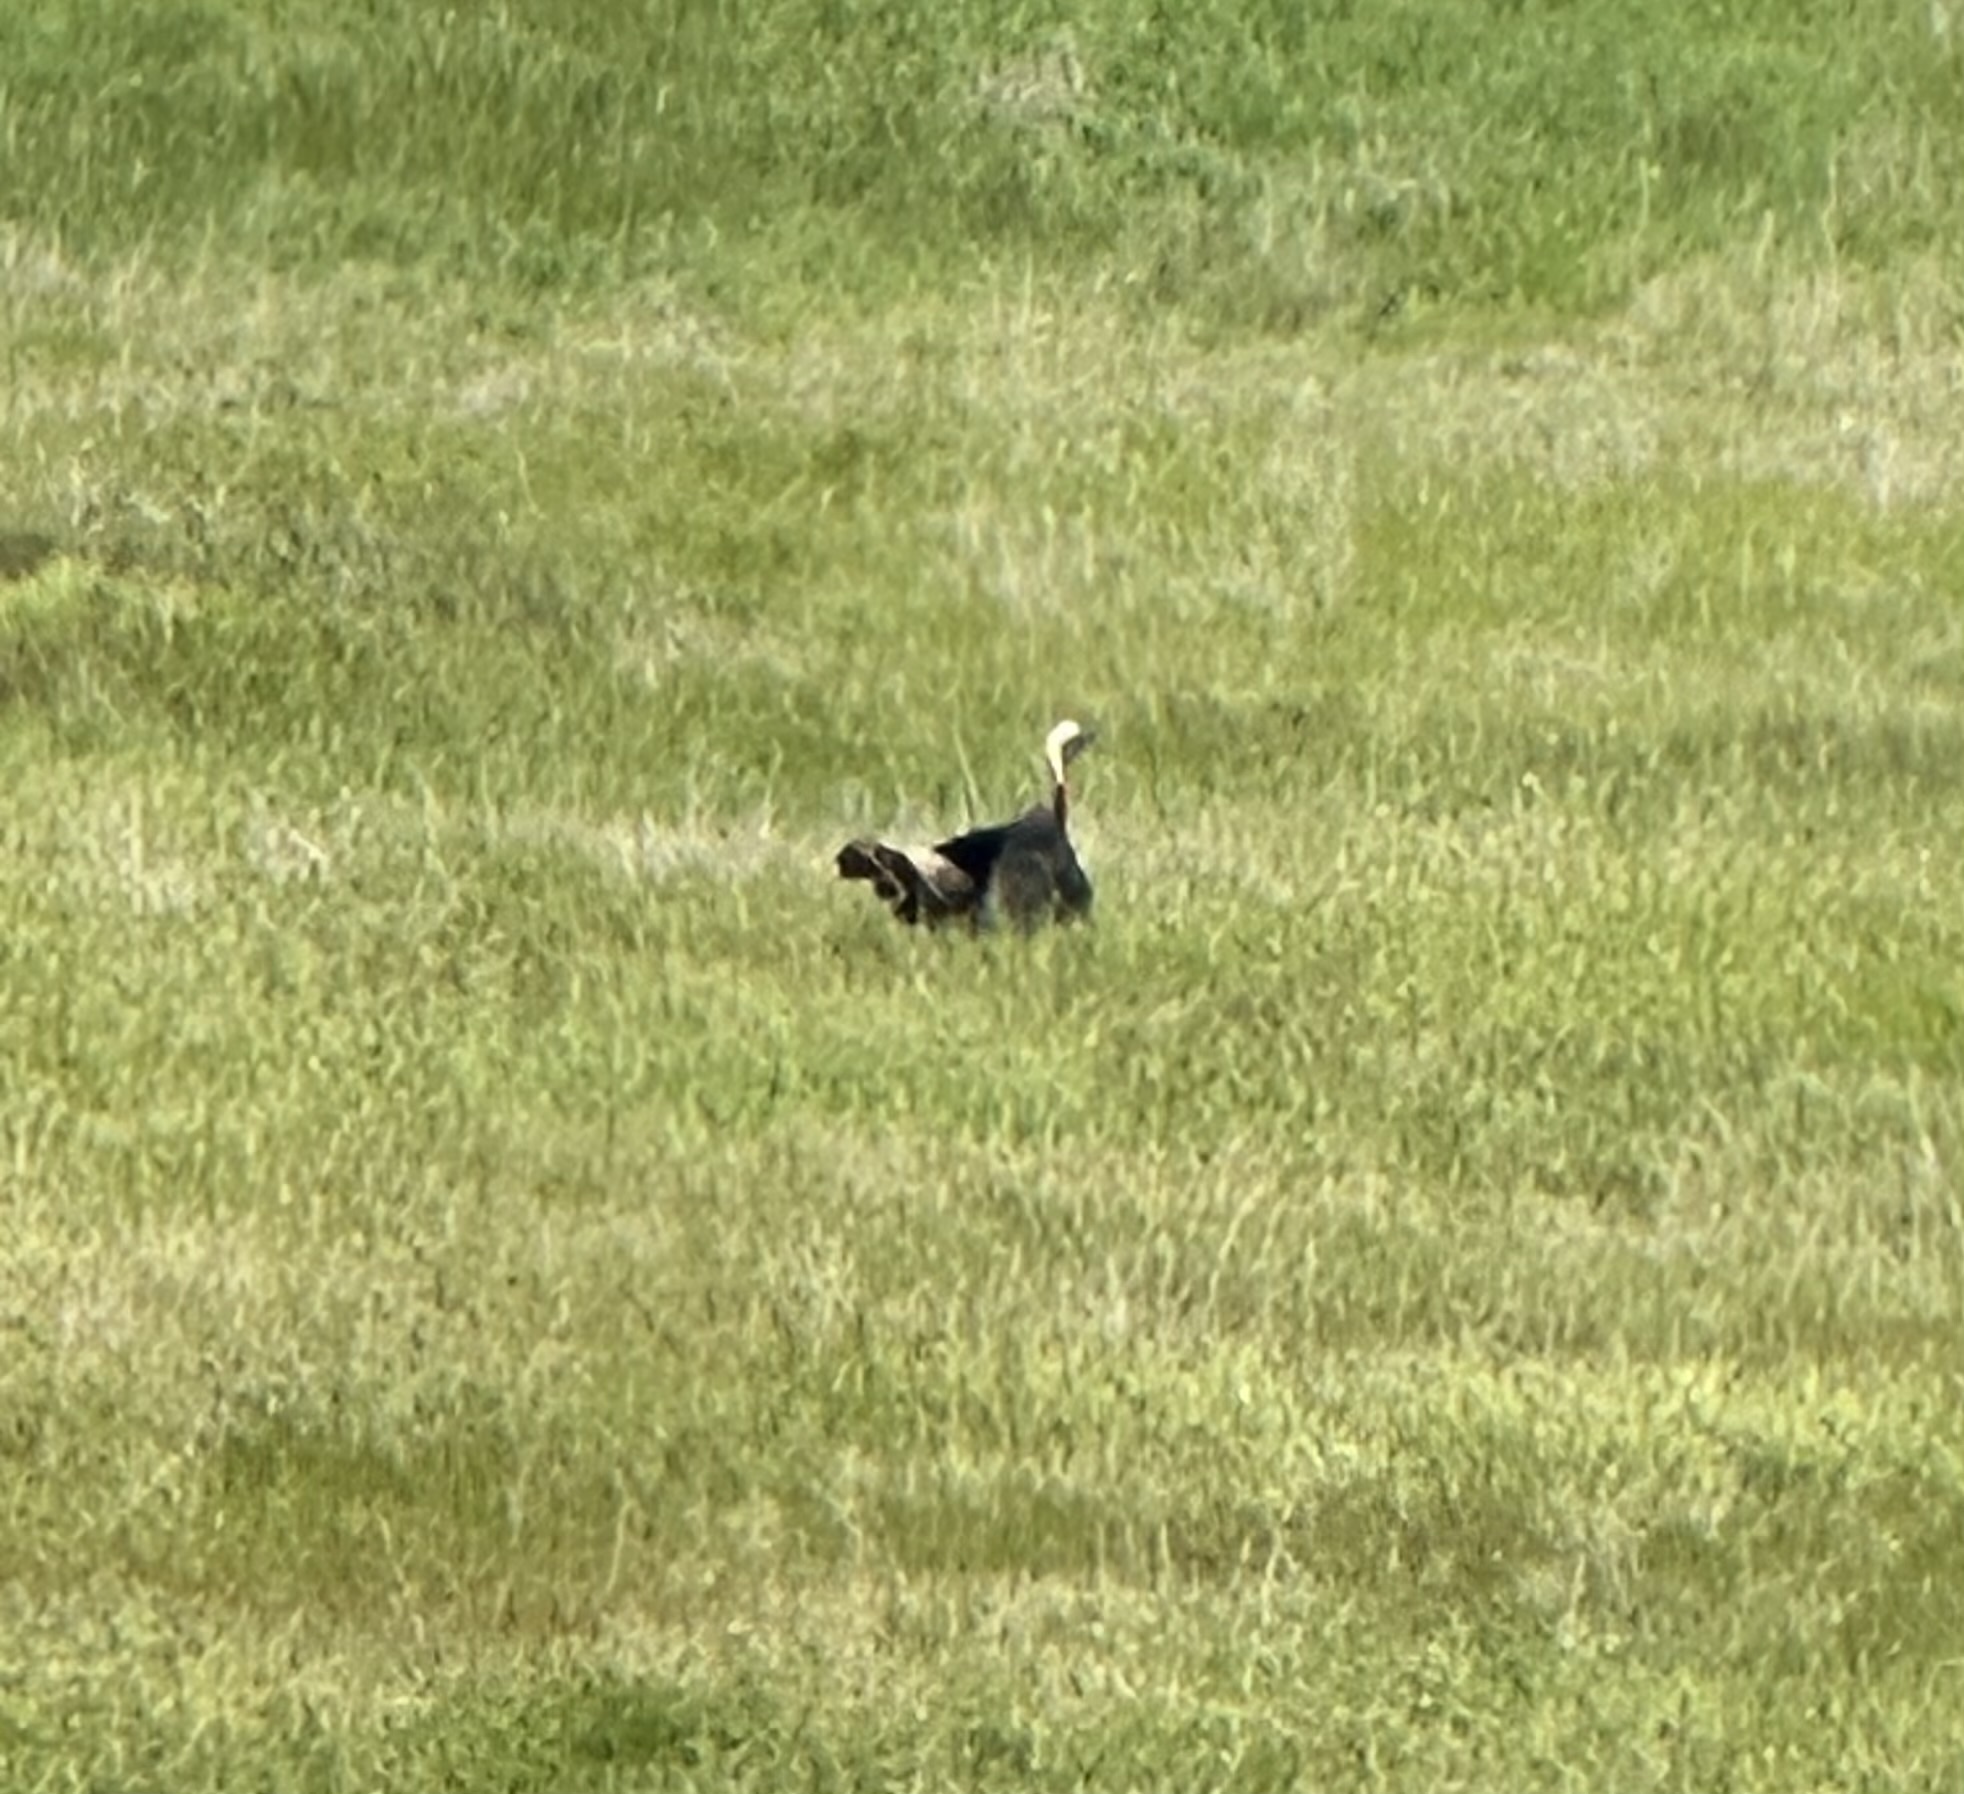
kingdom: Animalia
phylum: Chordata
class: Aves
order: Galliformes
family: Phasianidae
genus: Meleagris
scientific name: Meleagris gallopavo
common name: Wild turkey
